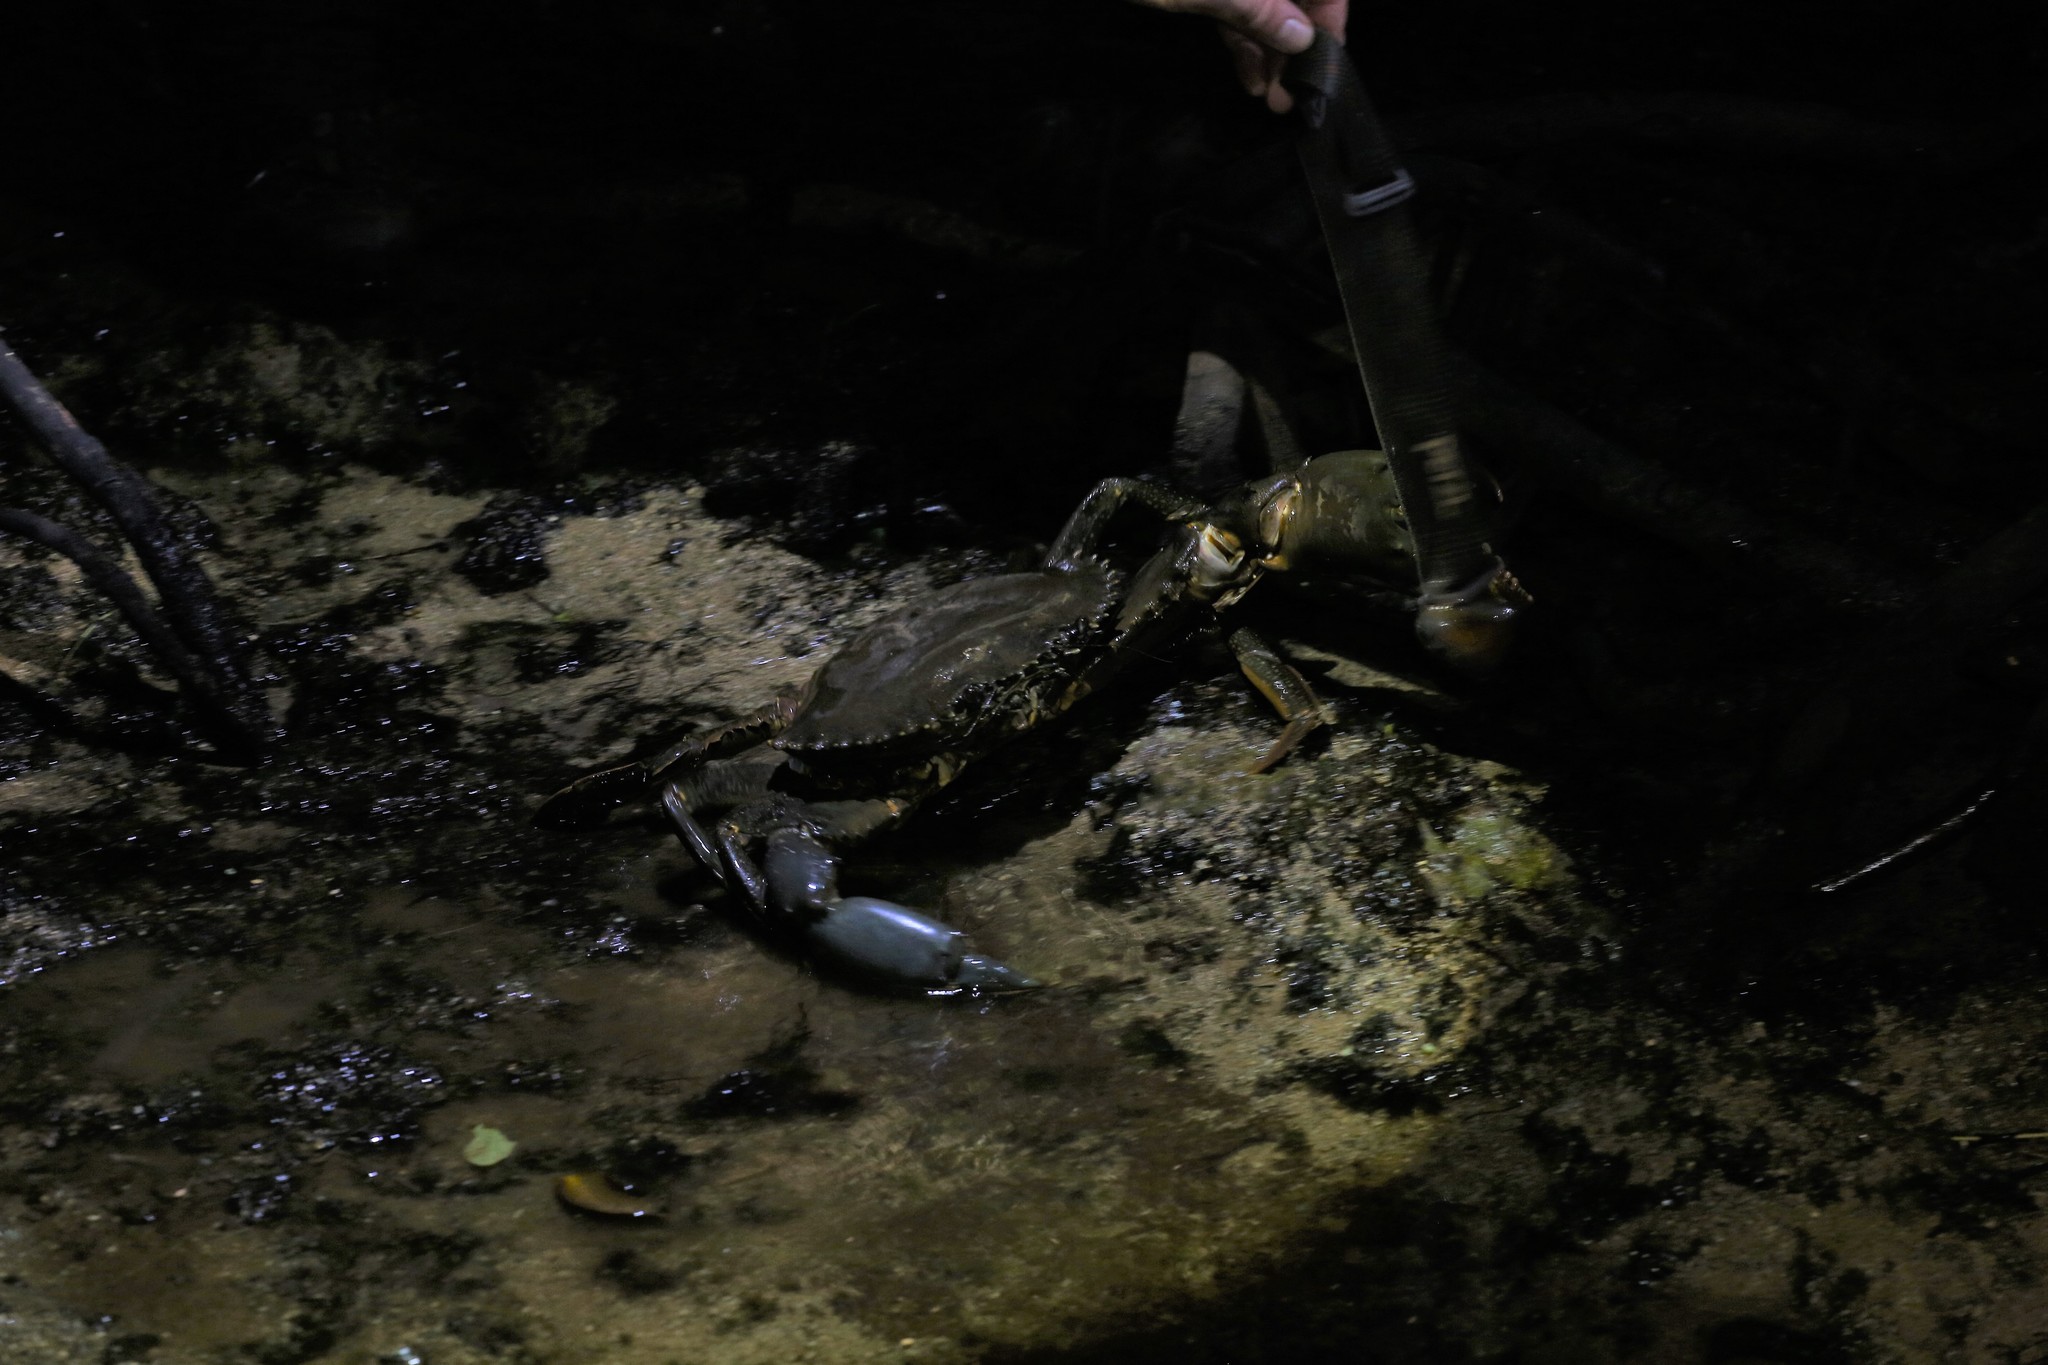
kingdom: Animalia
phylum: Arthropoda
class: Malacostraca
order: Decapoda
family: Portunidae
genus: Scylla
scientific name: Scylla serrata
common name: Giant mud crab
